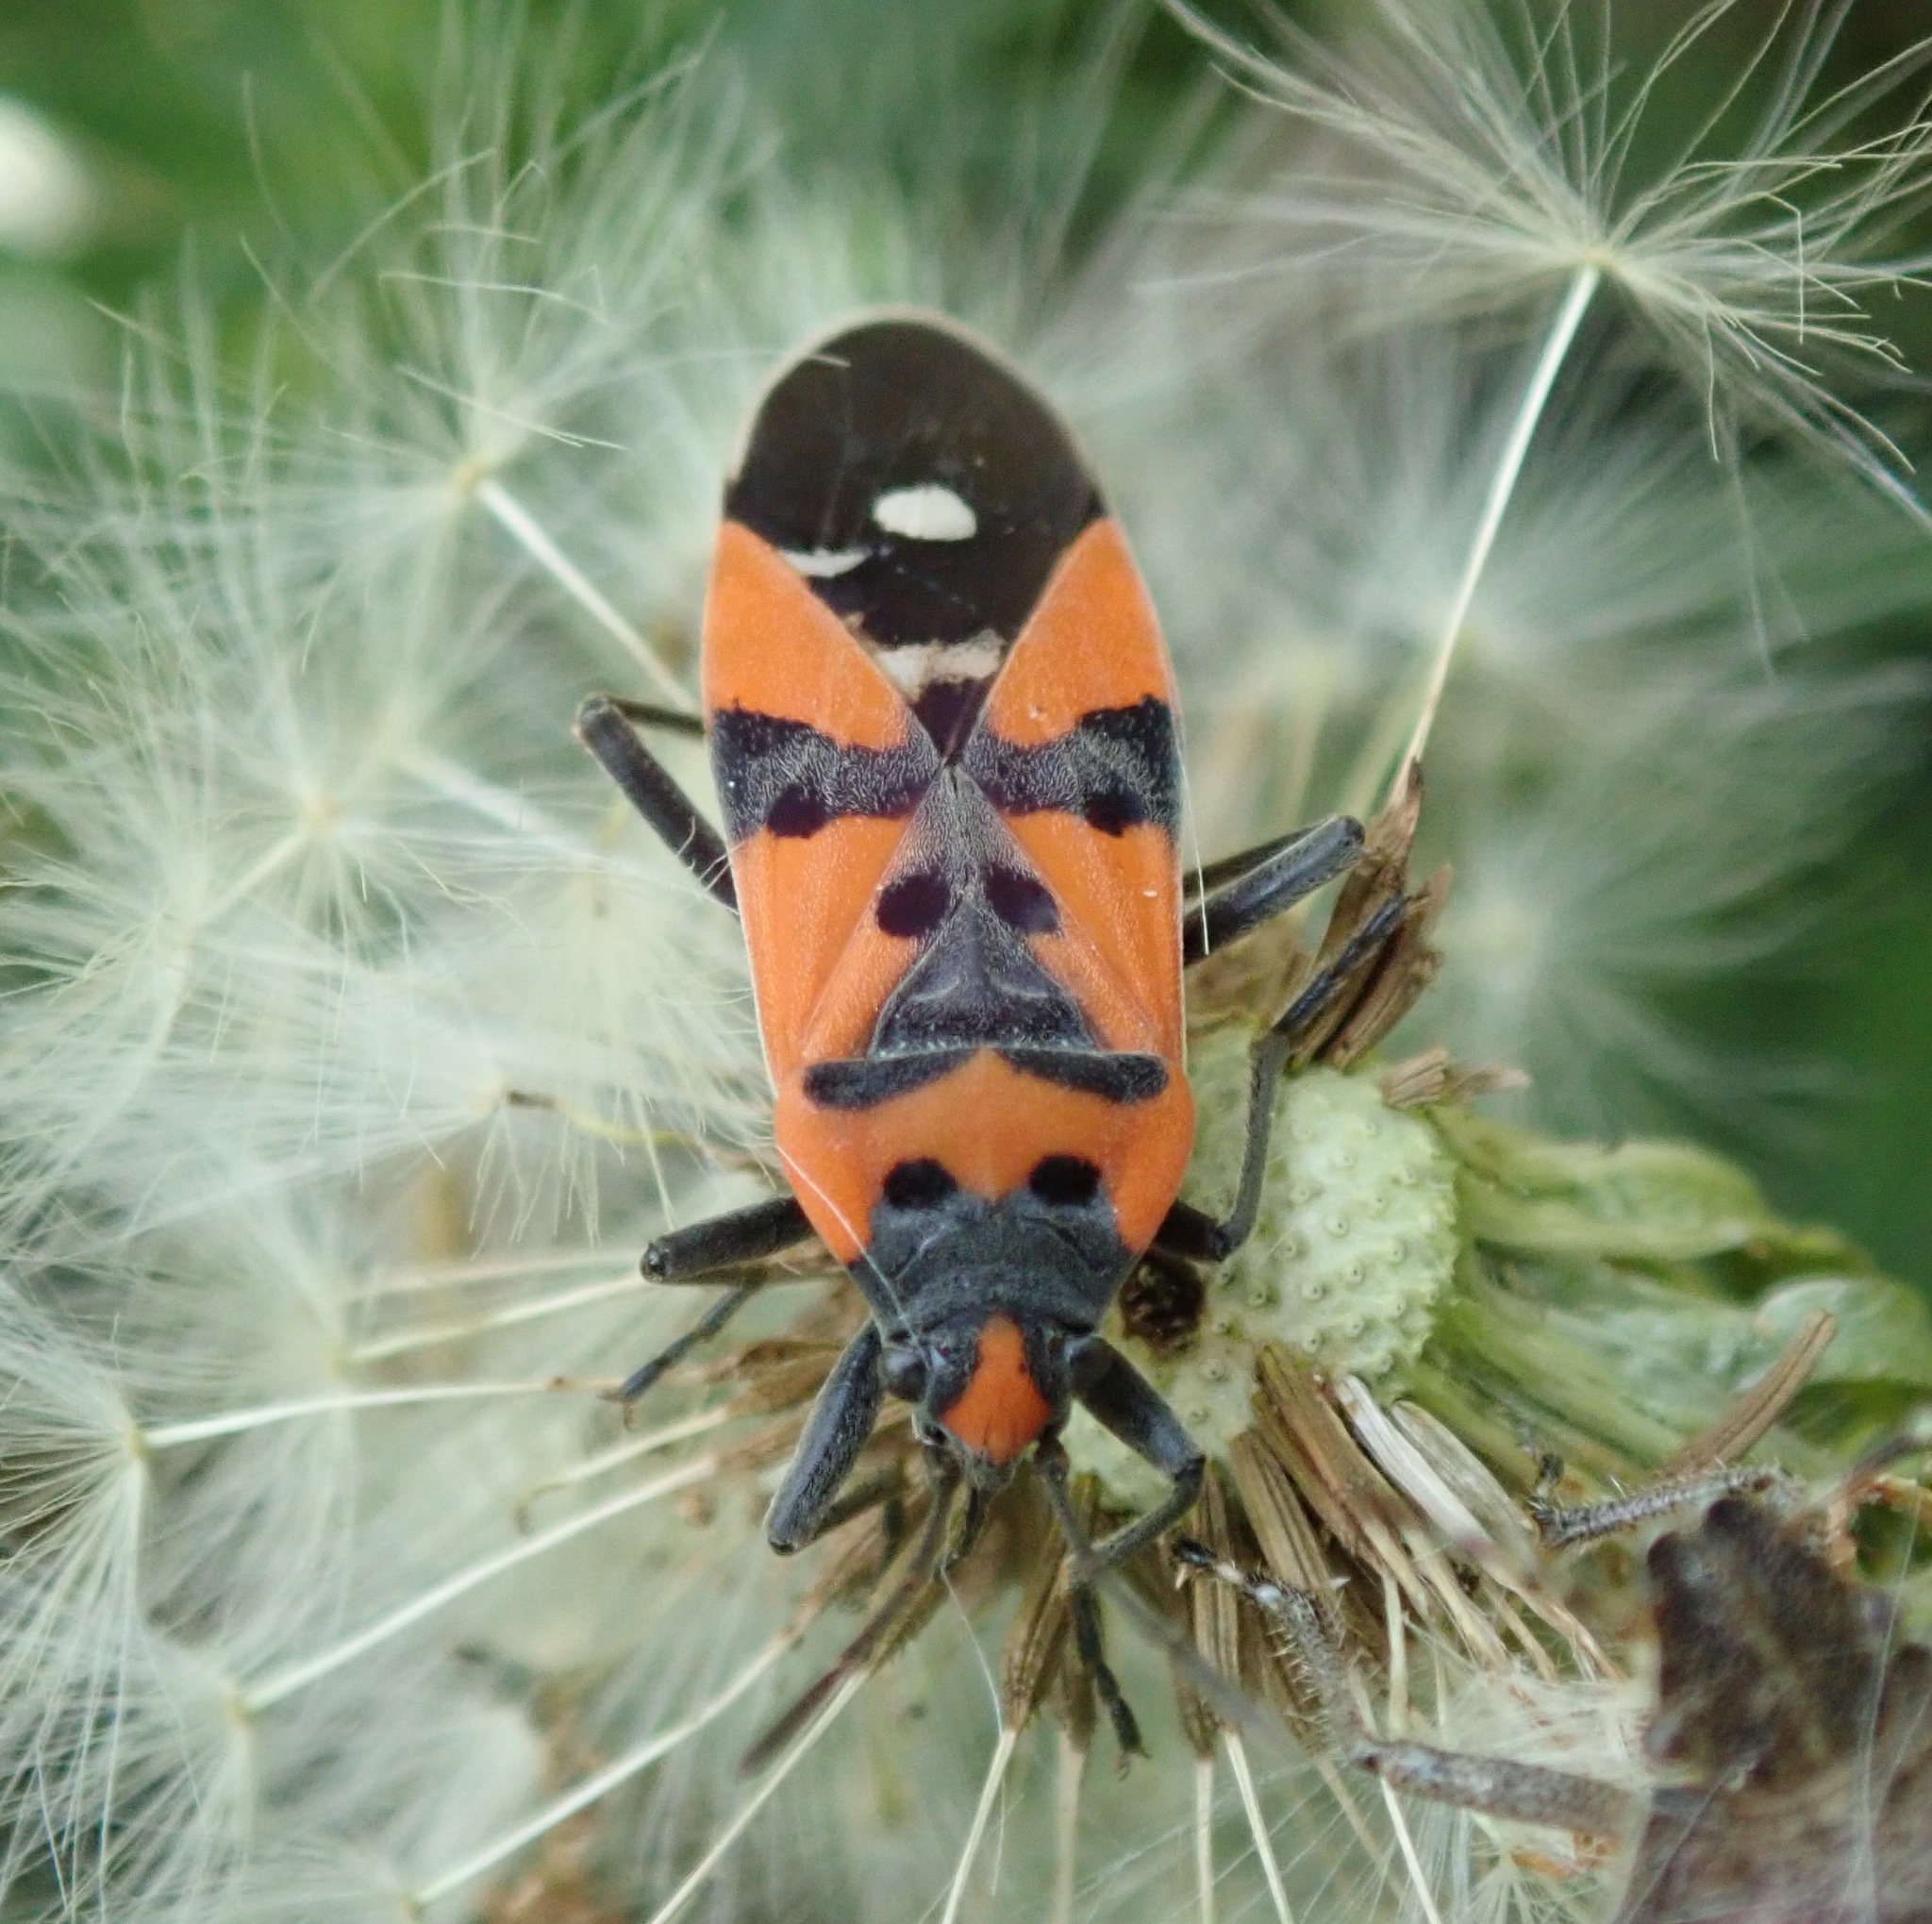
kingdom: Animalia
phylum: Arthropoda
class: Insecta
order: Hemiptera
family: Lygaeidae
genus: Lygaeus
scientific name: Lygaeus equestris
